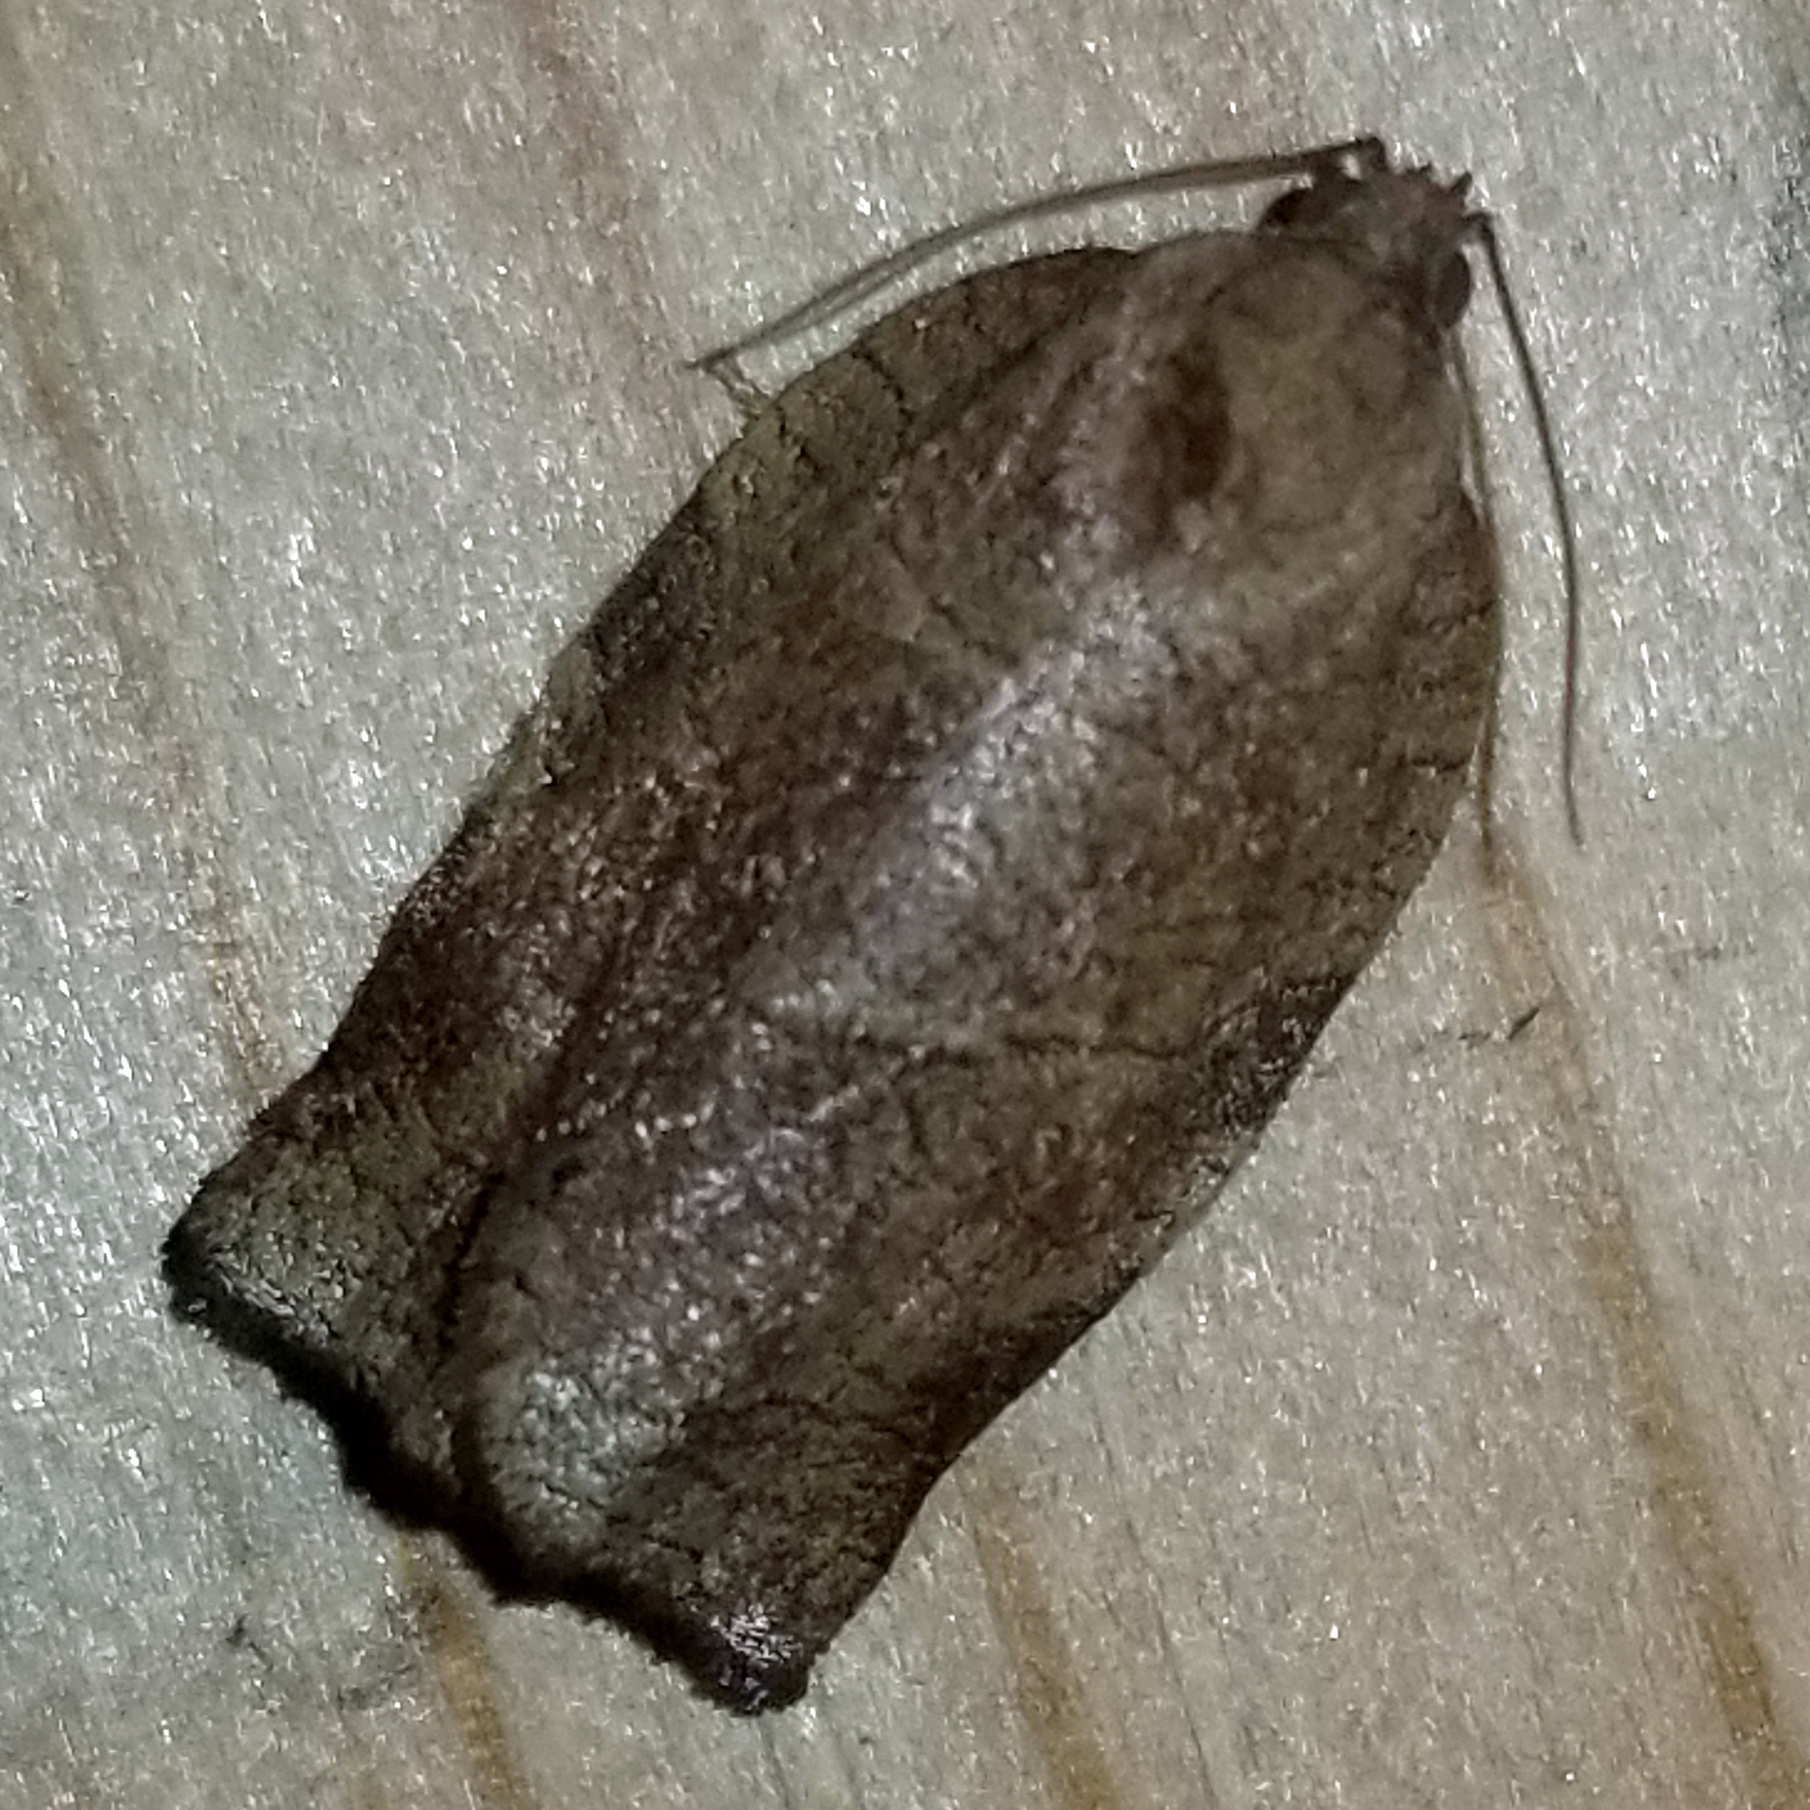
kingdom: Animalia
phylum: Arthropoda
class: Insecta
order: Lepidoptera
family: Tortricidae
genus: Choristoneura
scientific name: Choristoneura rosaceana
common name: Oblique-banded leafroller moth
